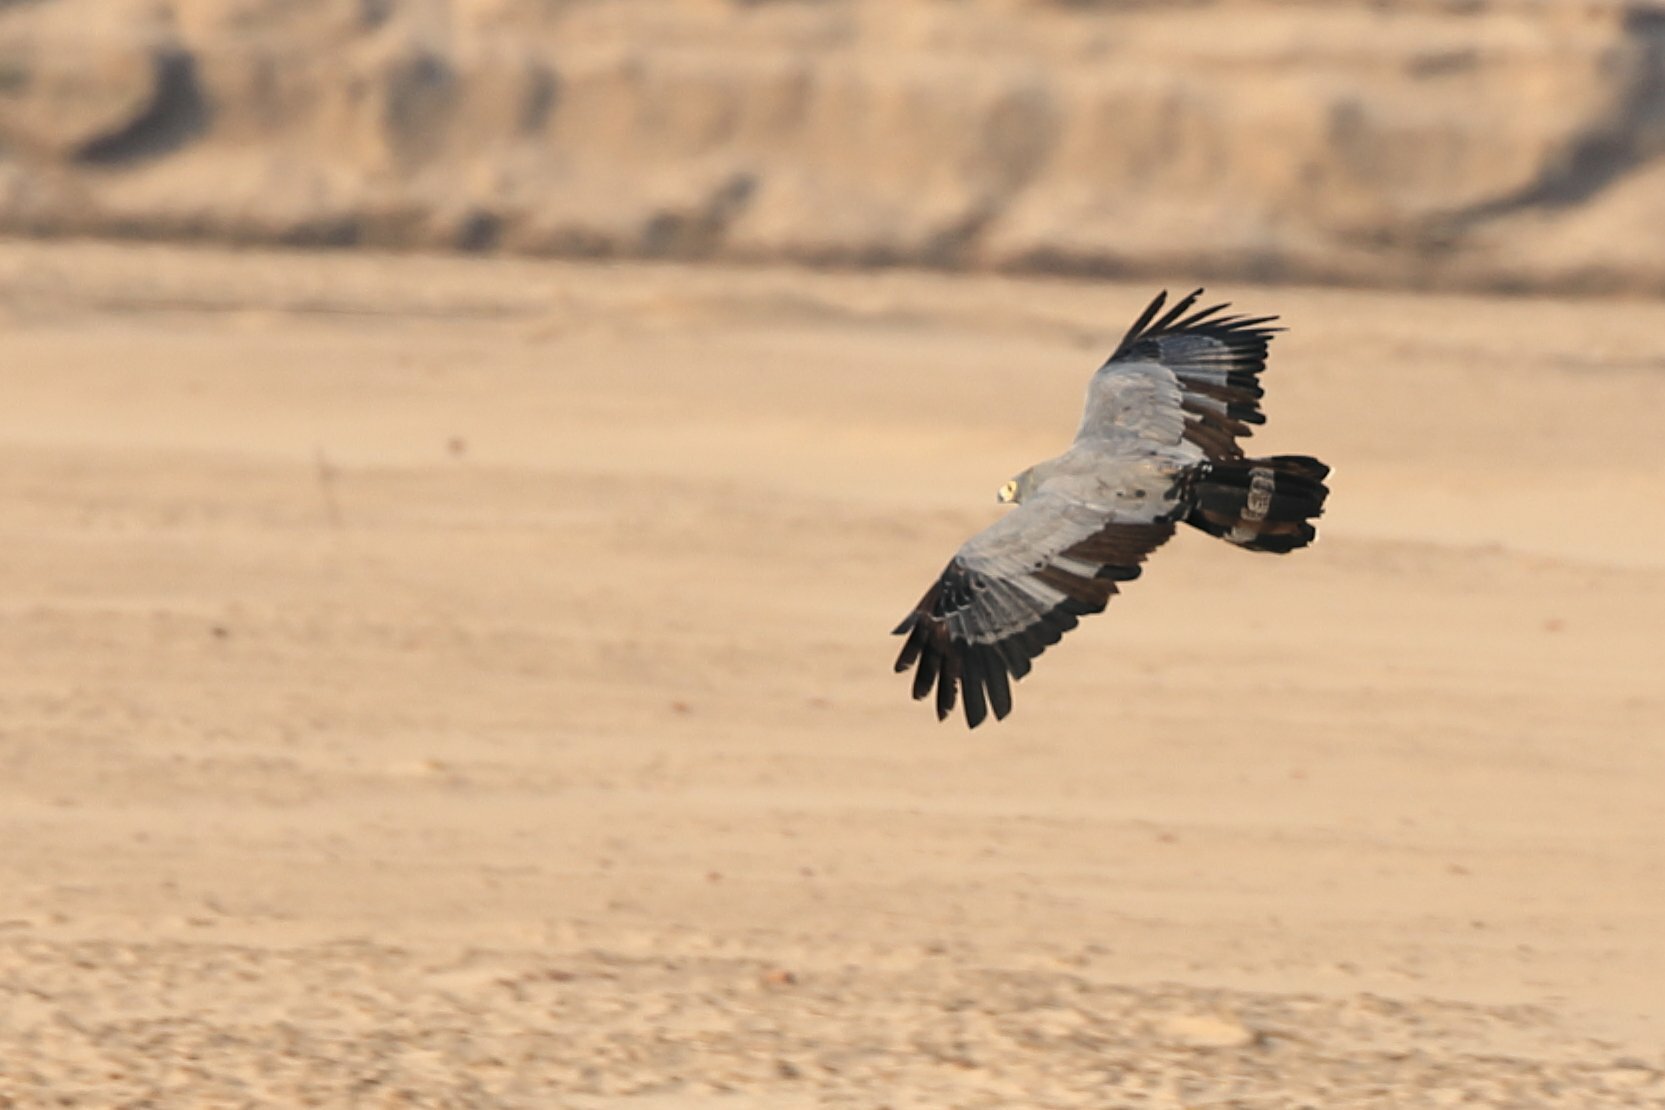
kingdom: Animalia
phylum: Chordata
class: Aves
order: Accipitriformes
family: Accipitridae
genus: Polyboroides
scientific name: Polyboroides typus
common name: African harrier-hawk
